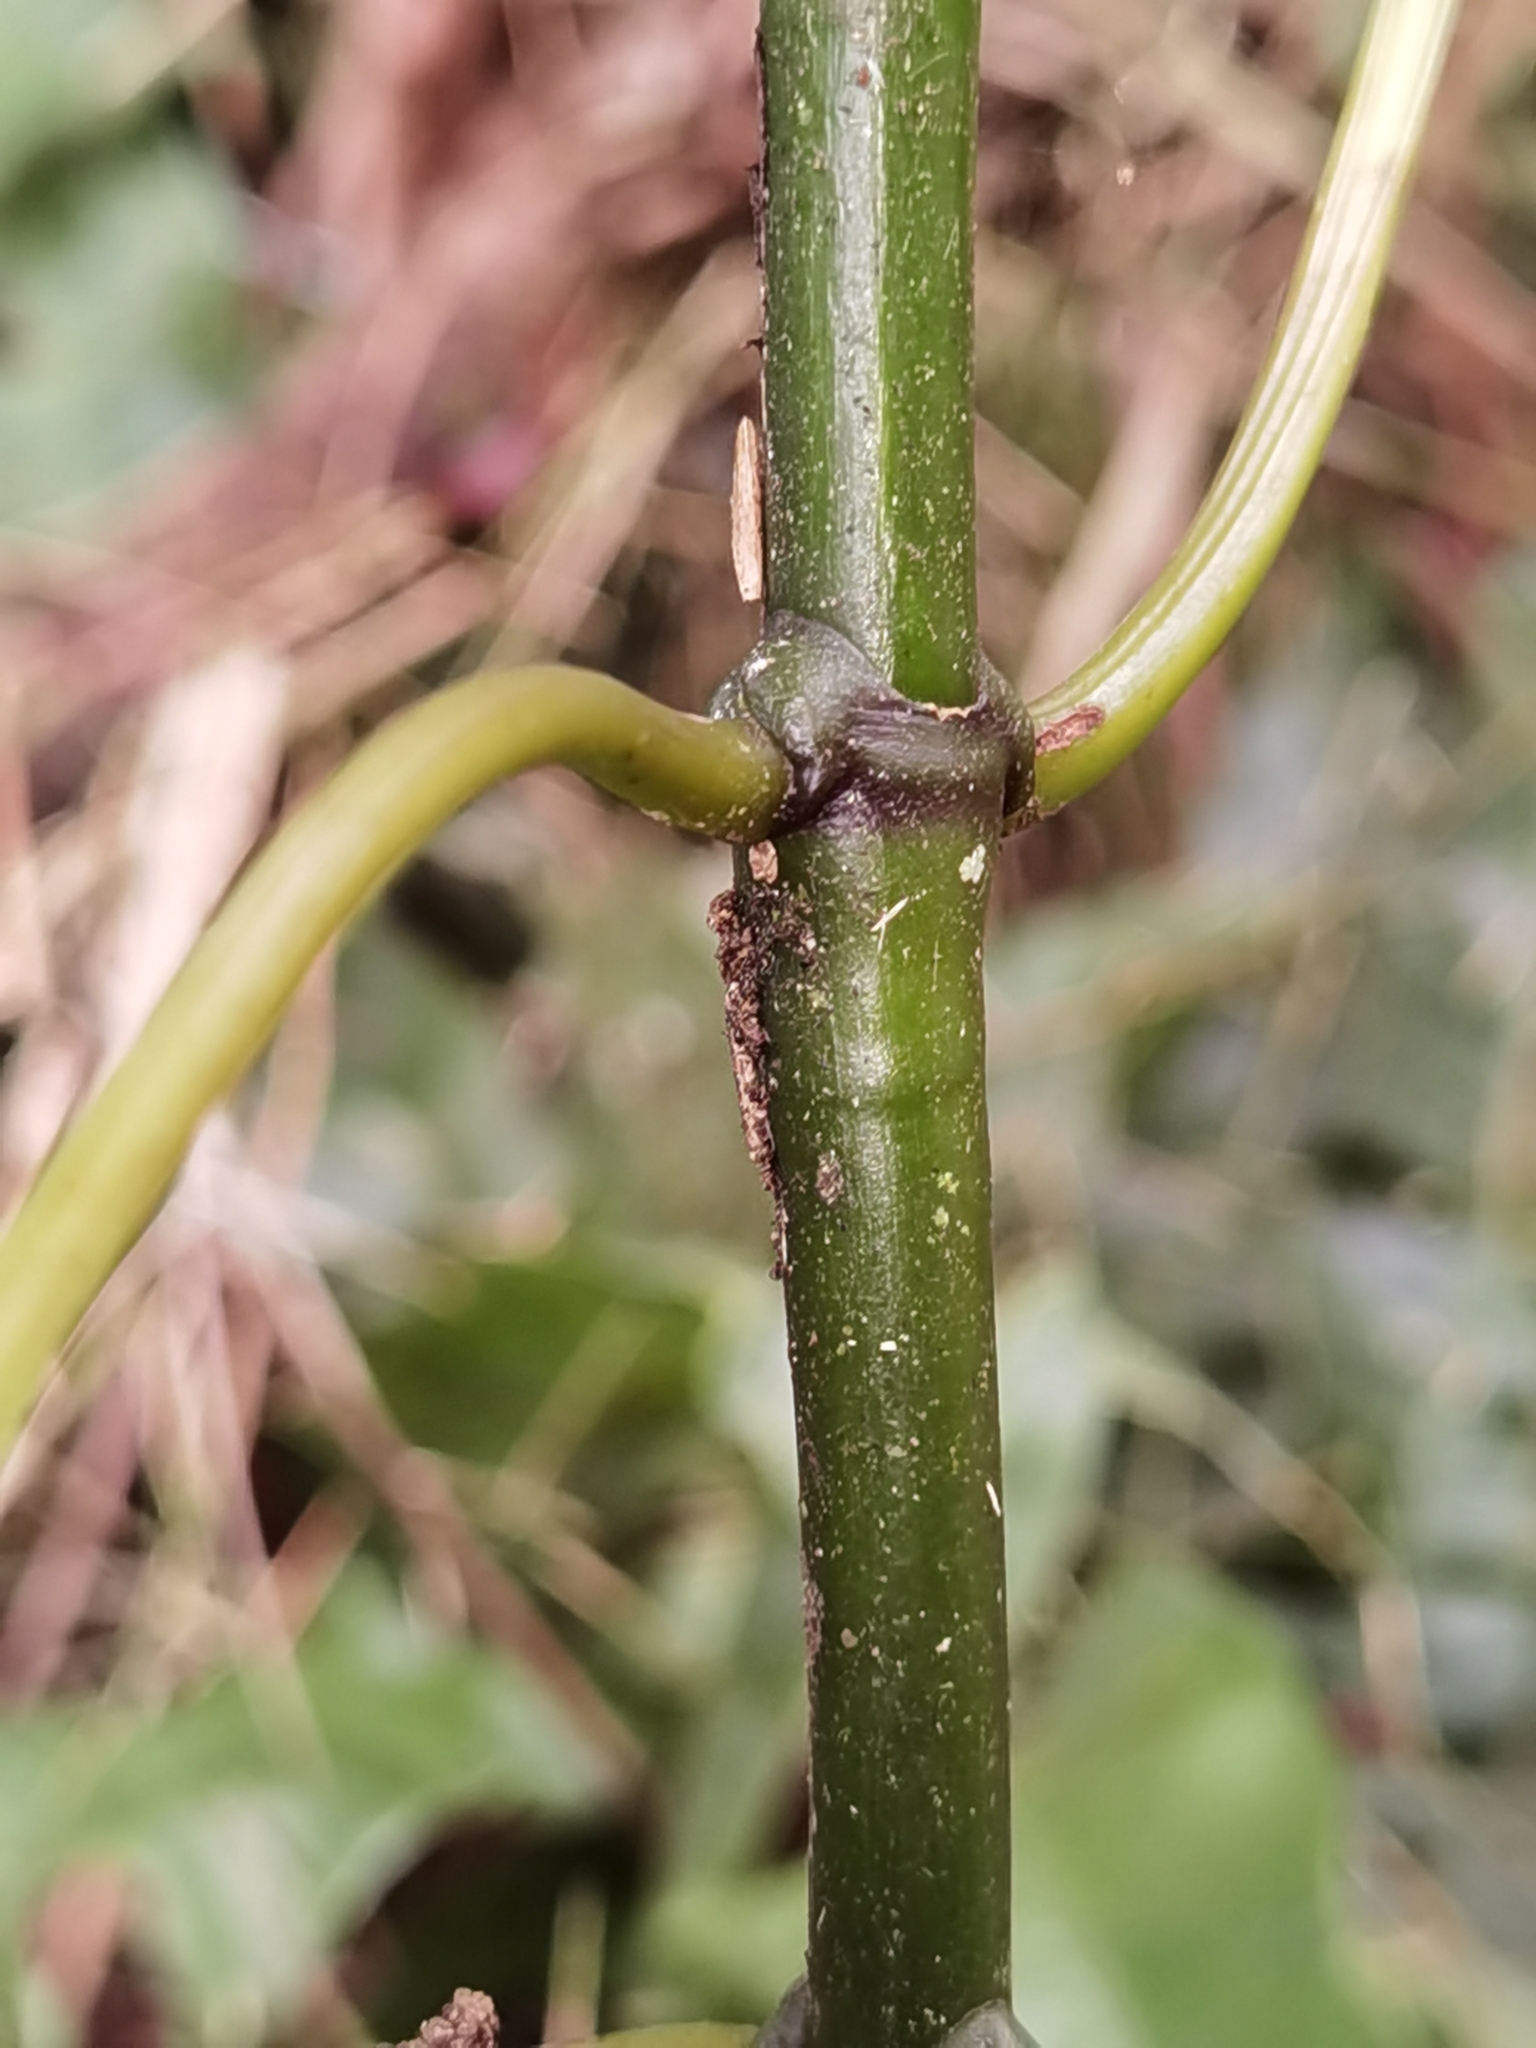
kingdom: Plantae
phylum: Tracheophyta
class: Magnoliopsida
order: Gentianales
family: Rubiaceae
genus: Palicourea
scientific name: Palicourea chiriquiensis
